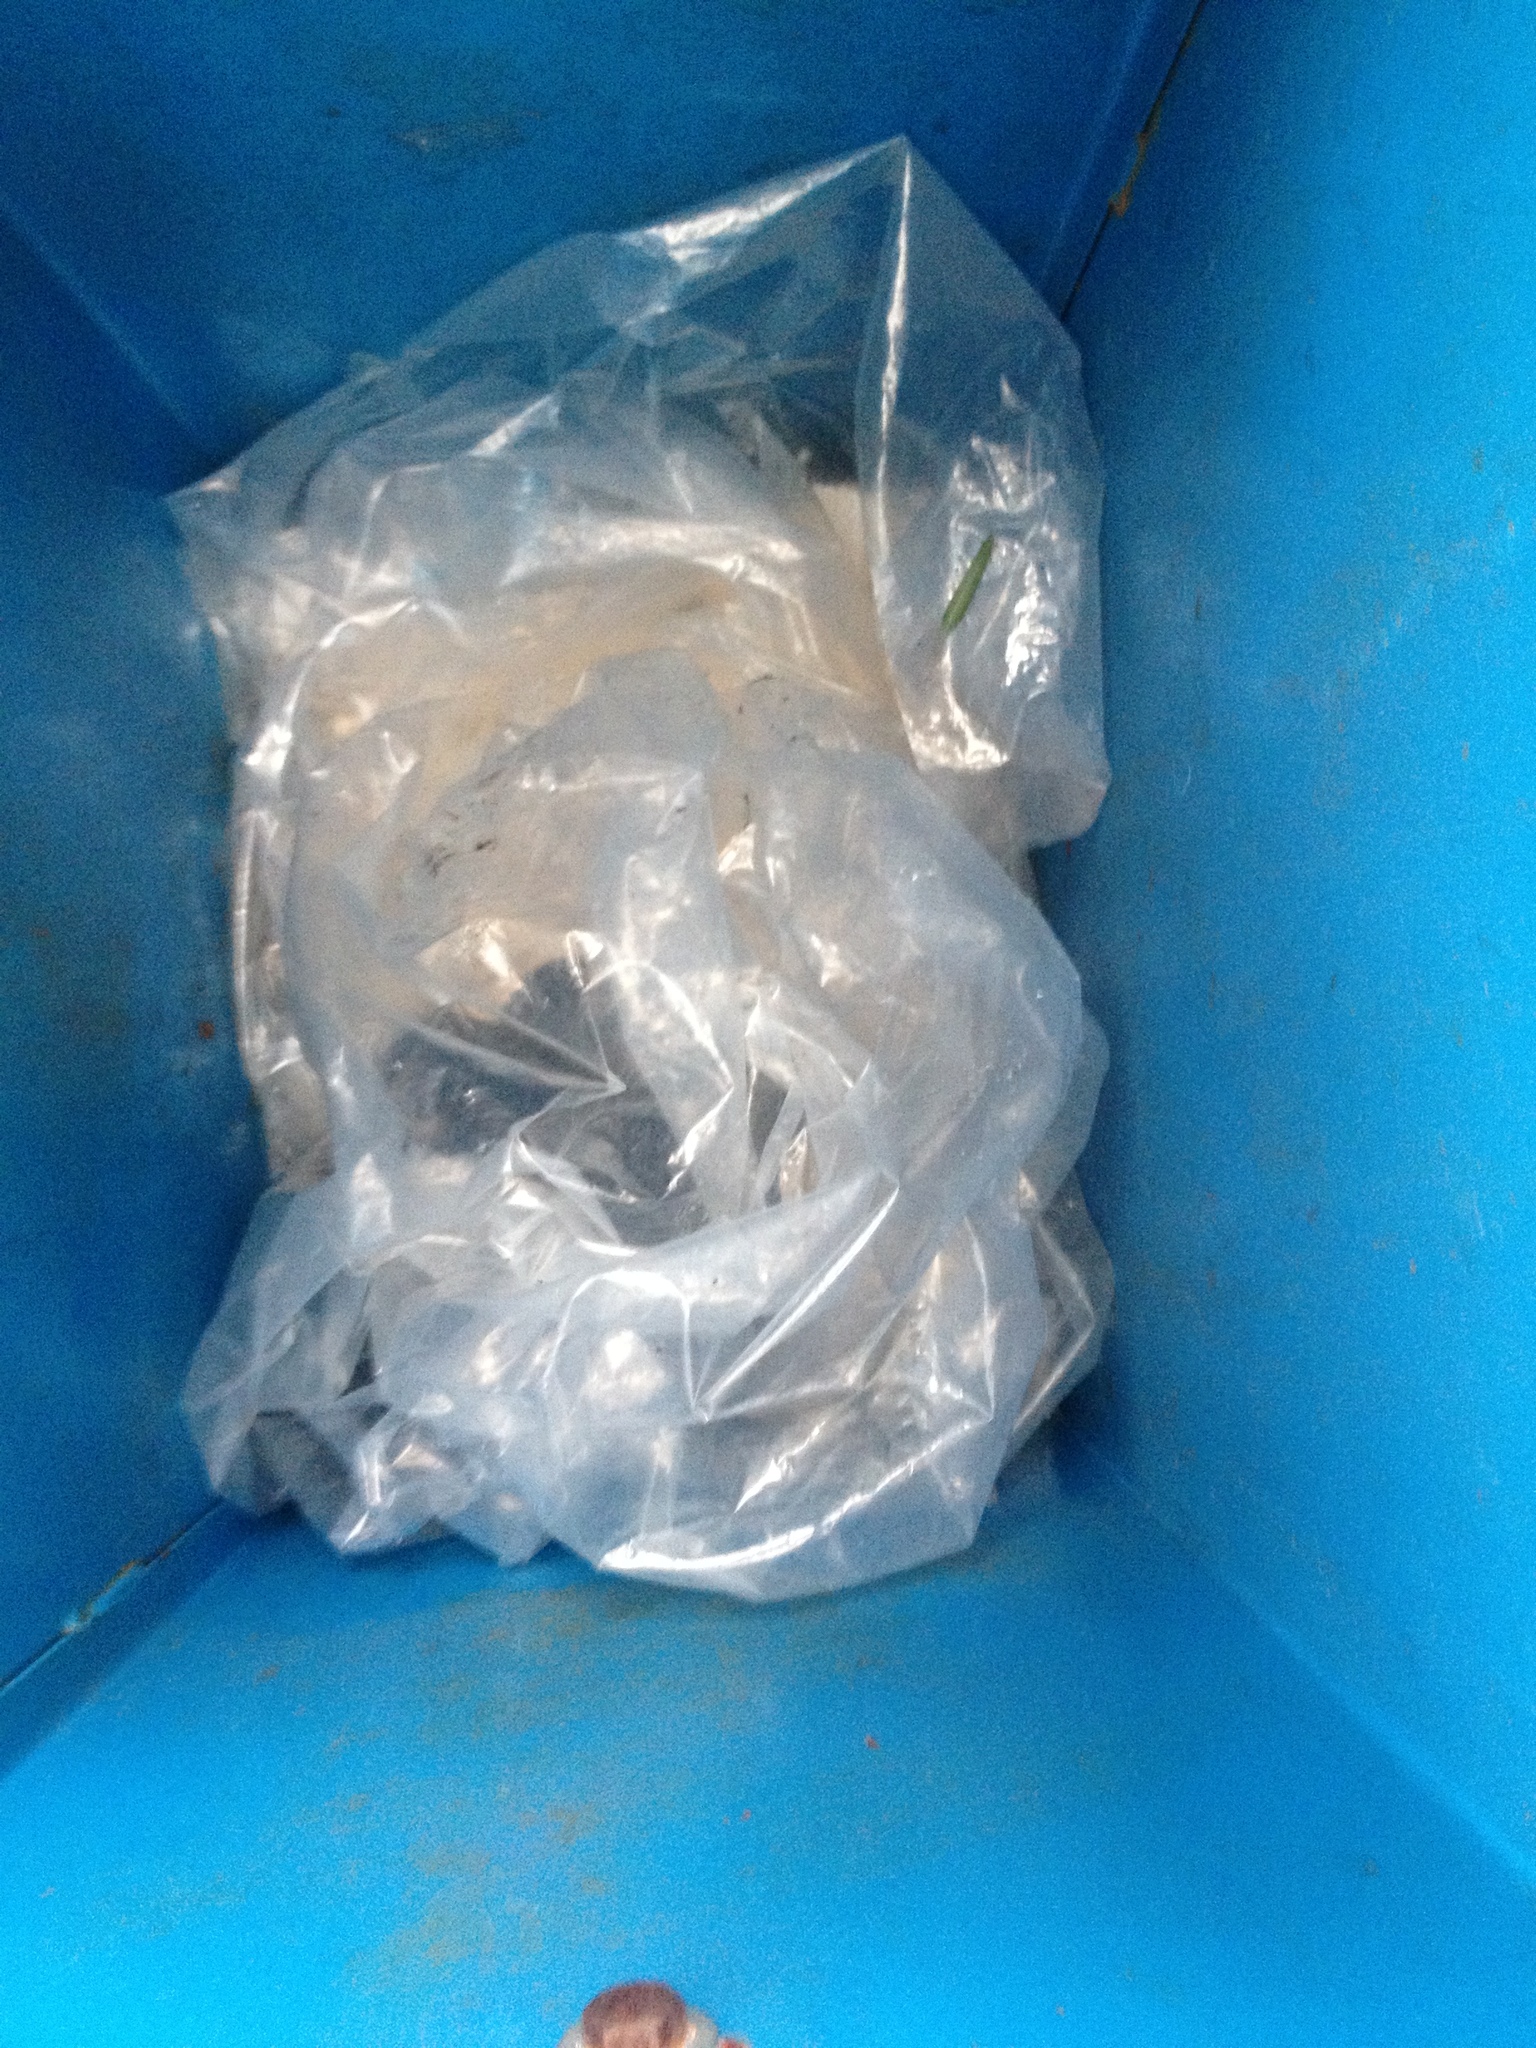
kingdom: Animalia
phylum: Chordata
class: Mammalia
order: Didelphimorphia
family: Didelphidae
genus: Didelphis
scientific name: Didelphis virginiana
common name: Virginia opossum
